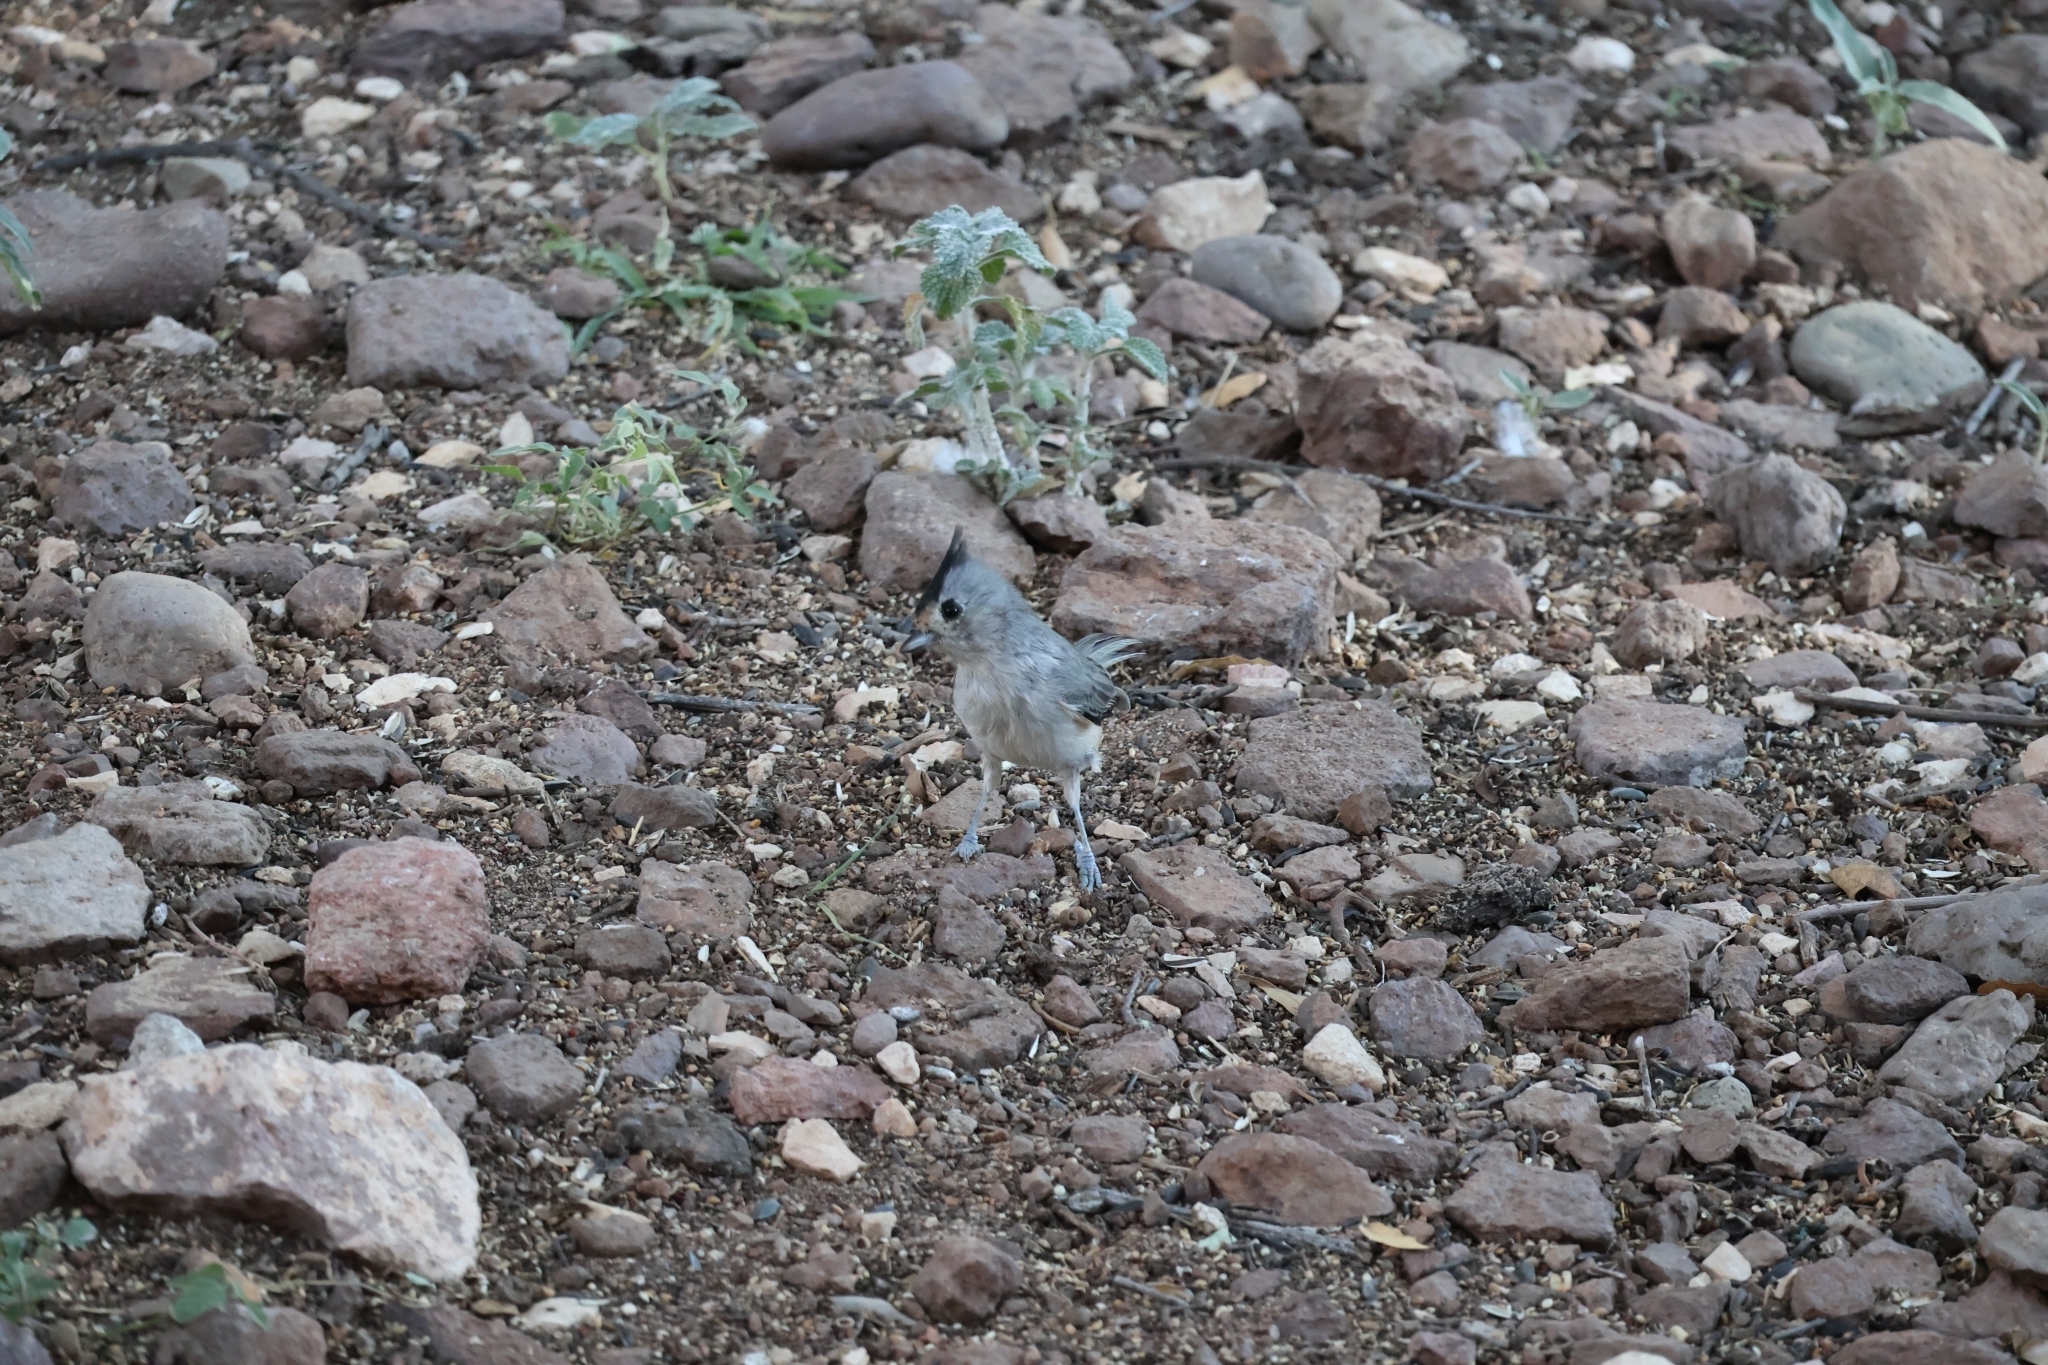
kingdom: Animalia
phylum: Chordata
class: Aves
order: Passeriformes
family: Paridae
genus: Baeolophus
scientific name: Baeolophus atricristatus
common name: Black-crested titmouse
